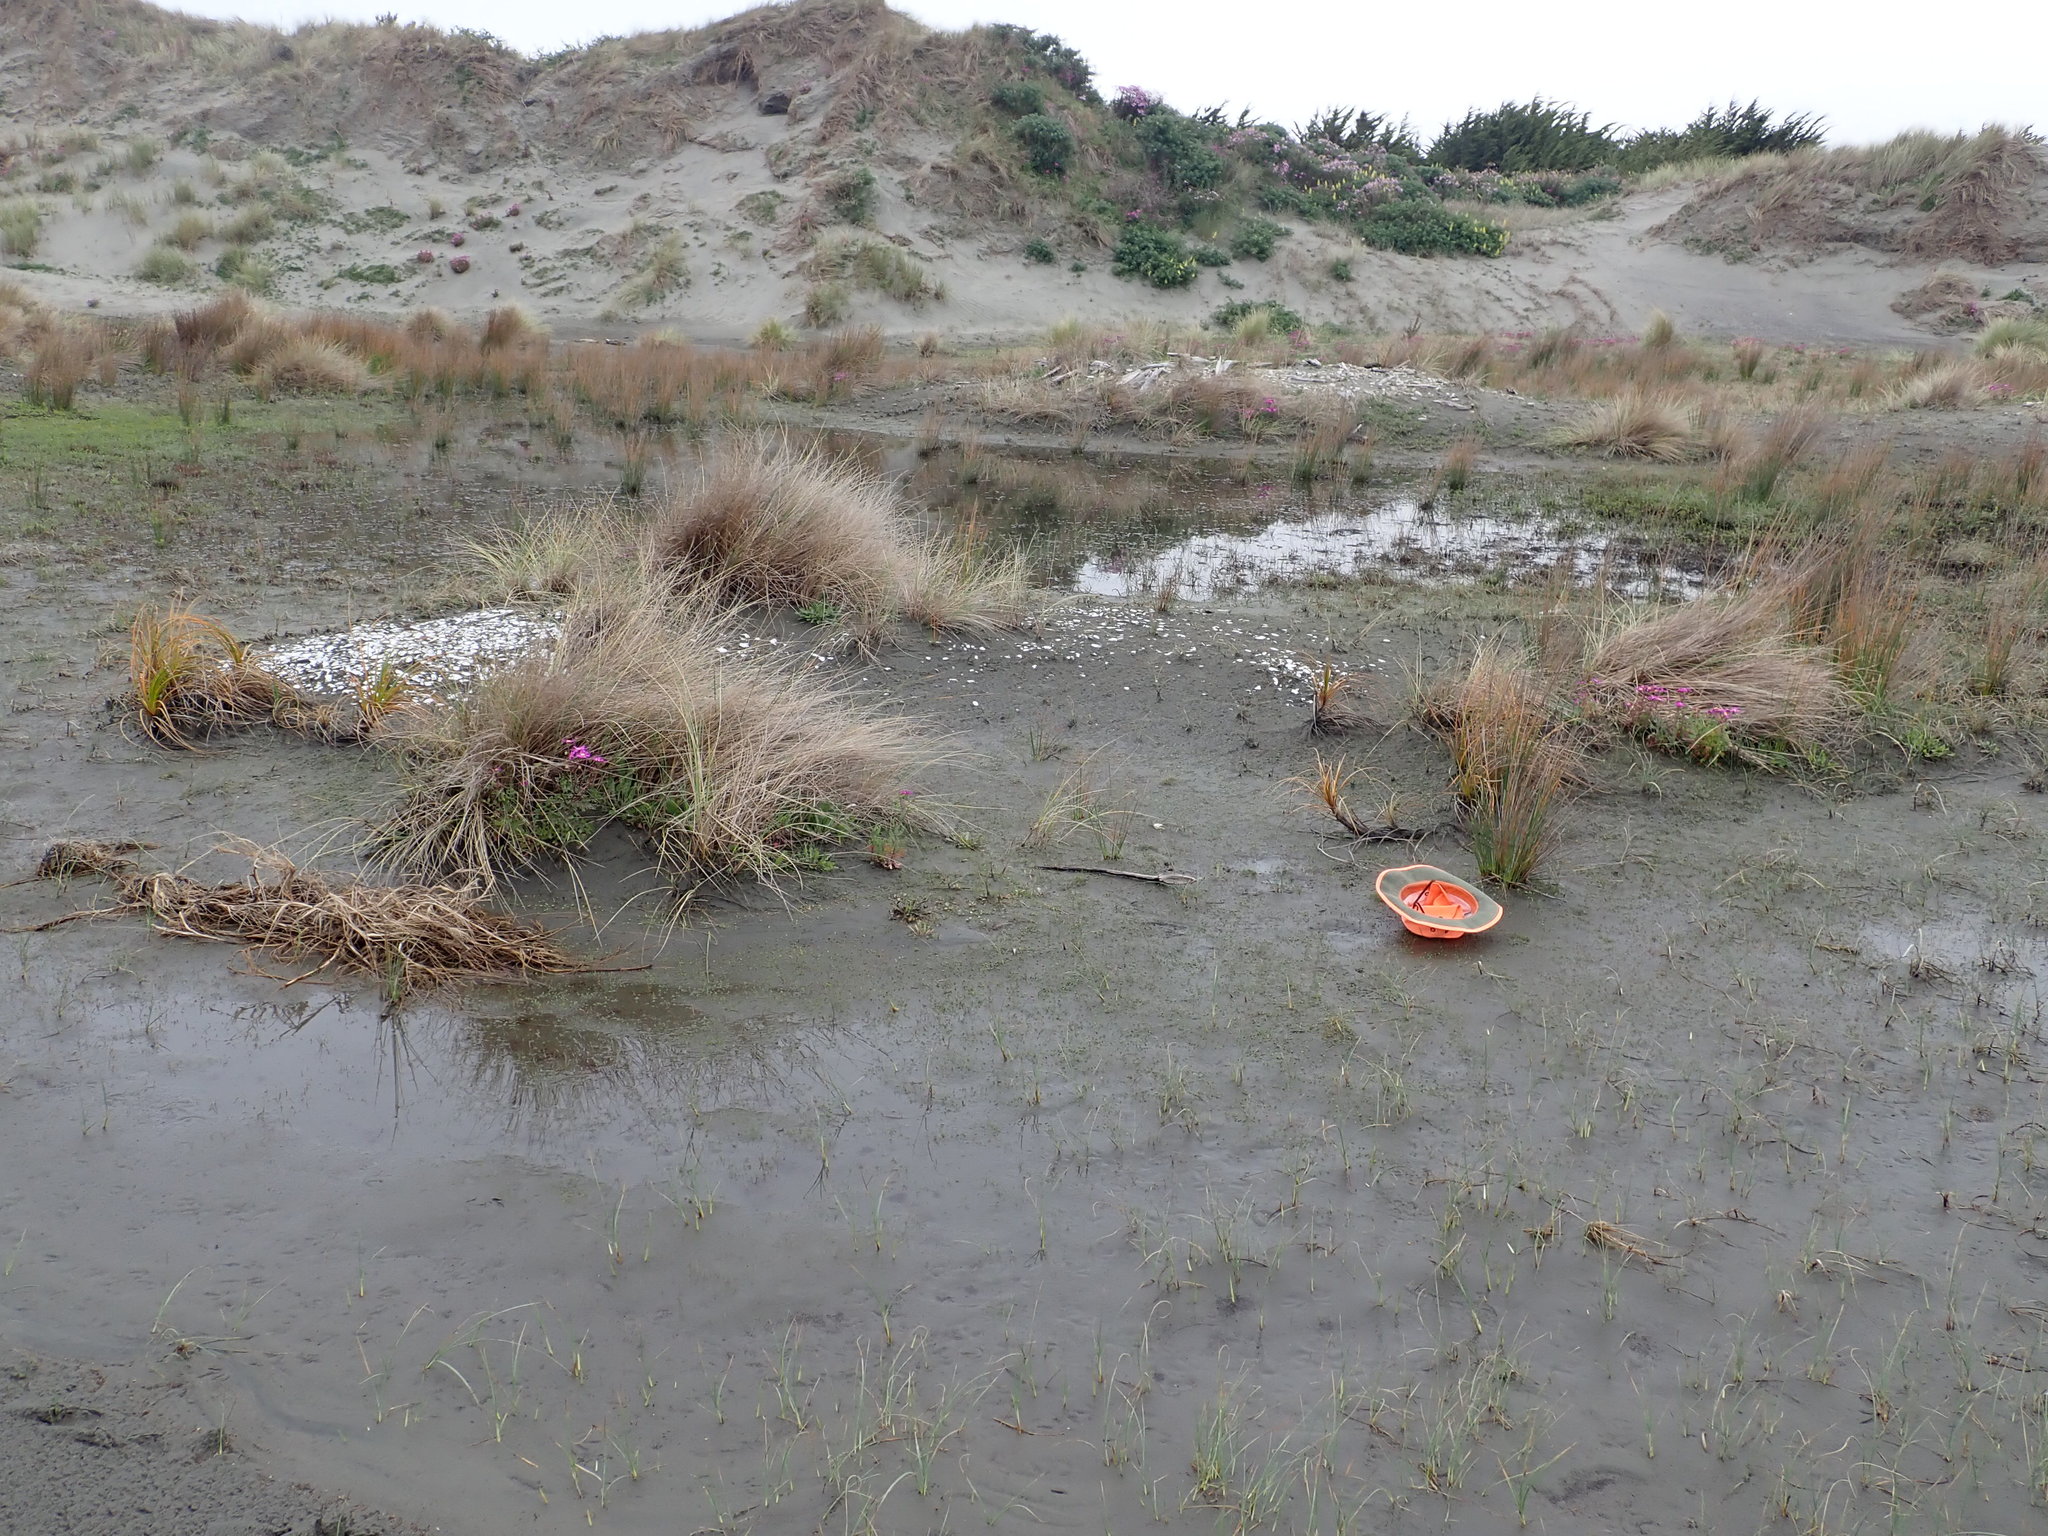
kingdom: Plantae
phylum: Tracheophyta
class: Liliopsida
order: Alismatales
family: Juncaginaceae
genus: Triglochin
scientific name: Triglochin striata
